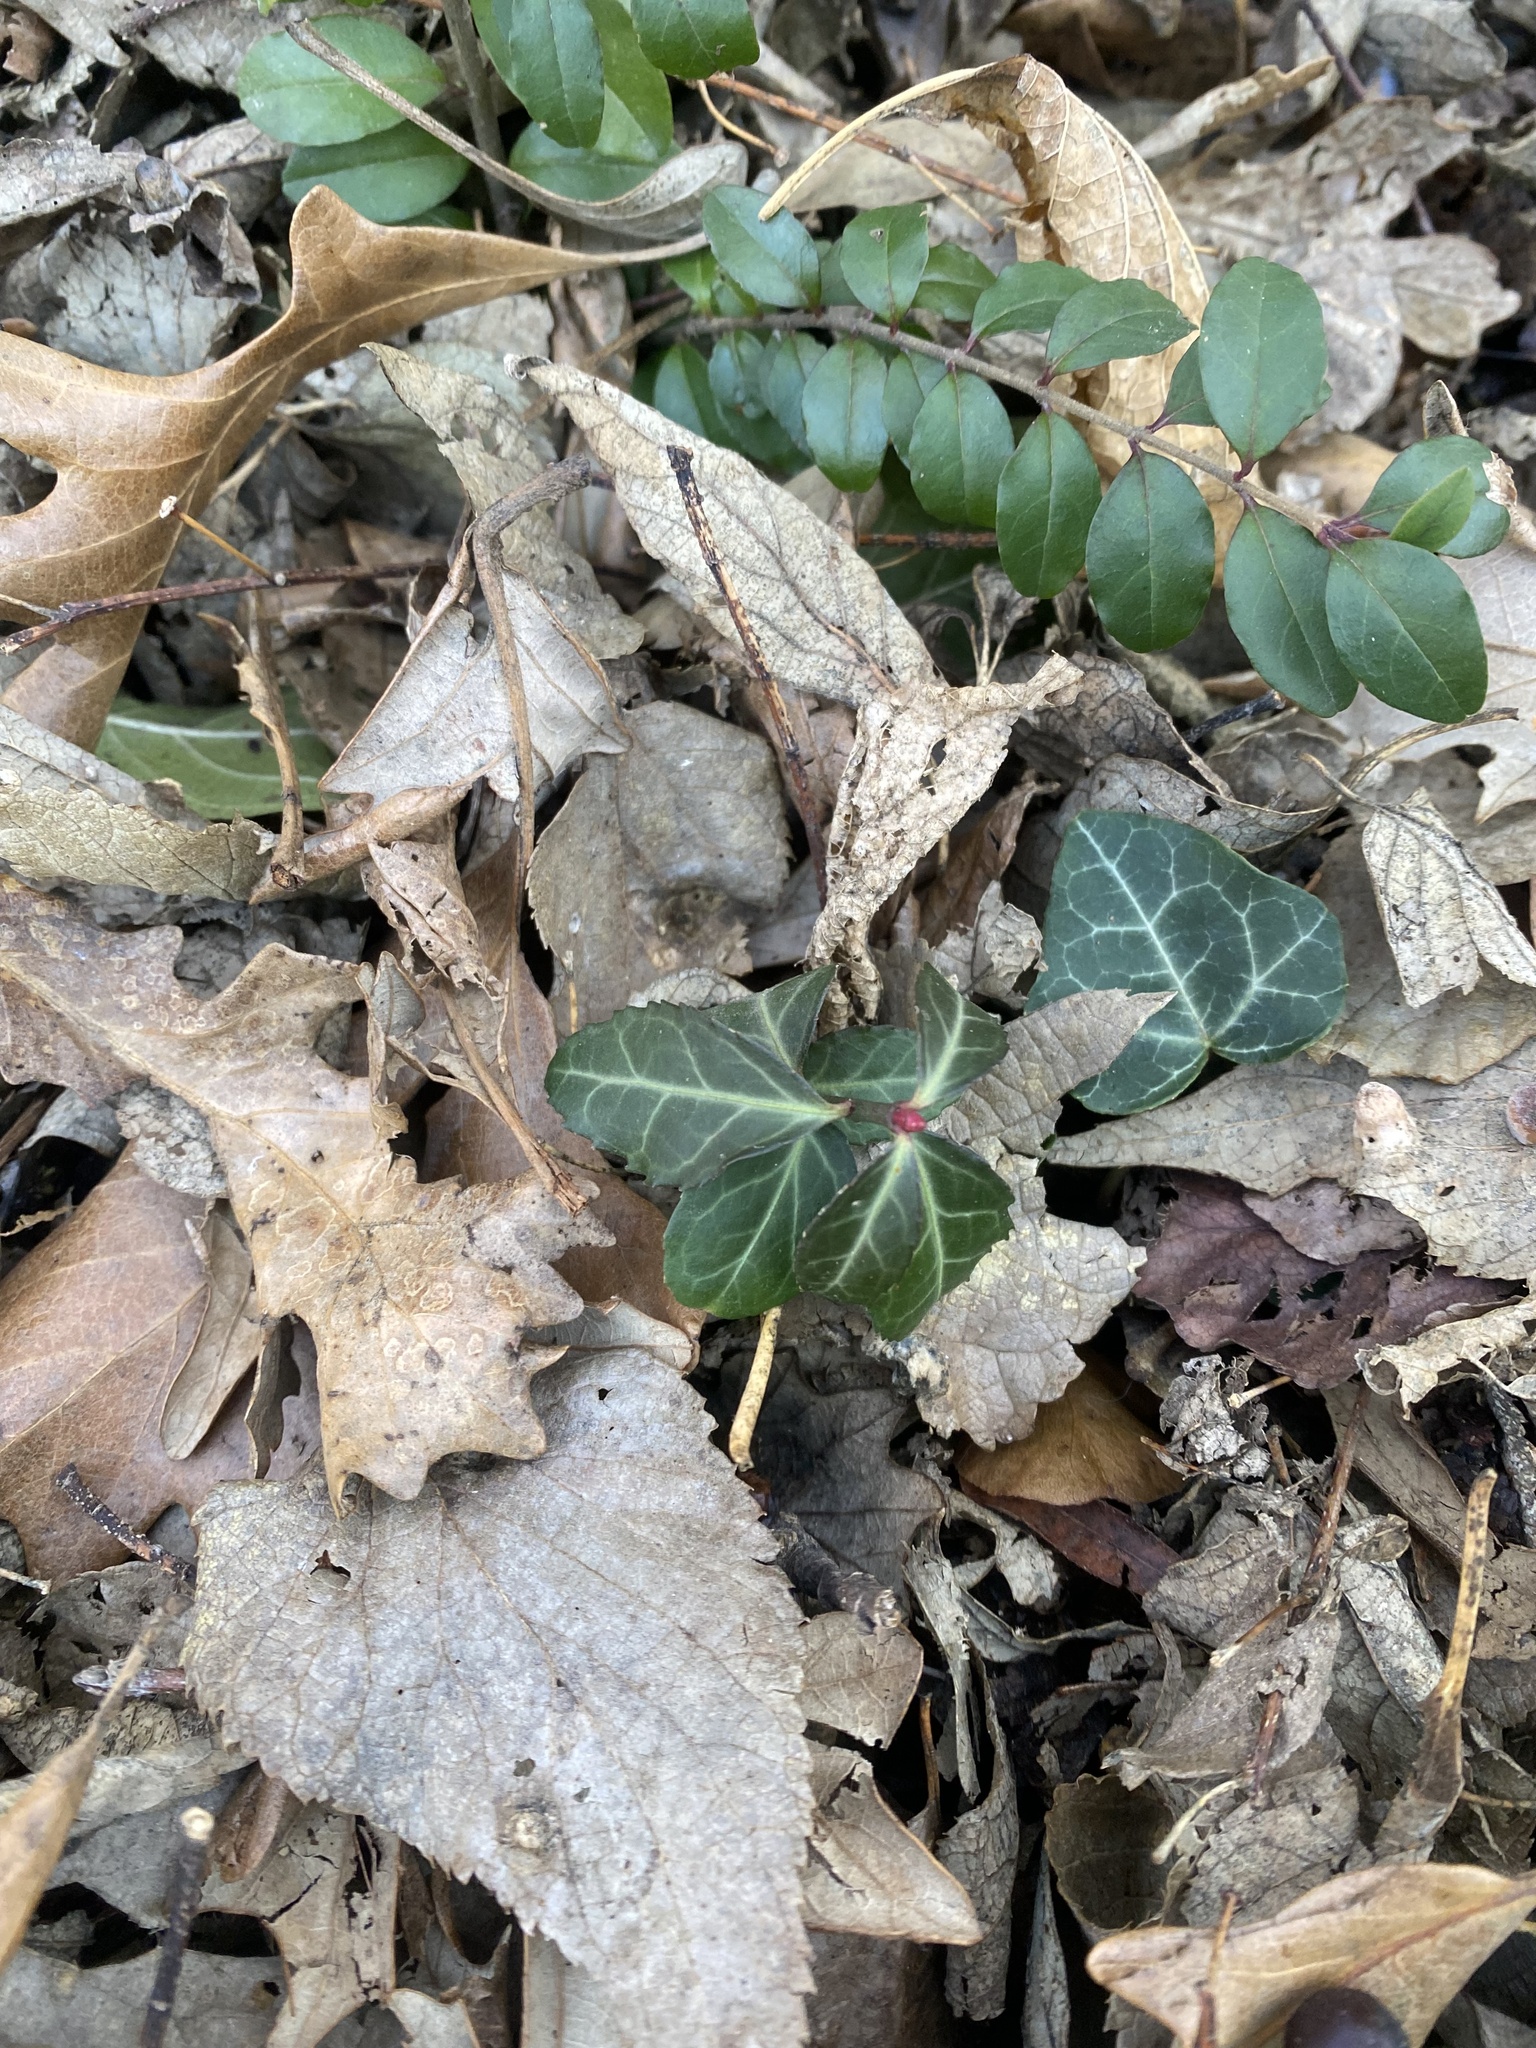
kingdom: Plantae
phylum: Tracheophyta
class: Magnoliopsida
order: Lamiales
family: Oleaceae
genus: Ligustrum
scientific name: Ligustrum sinense
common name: Chinese privet
